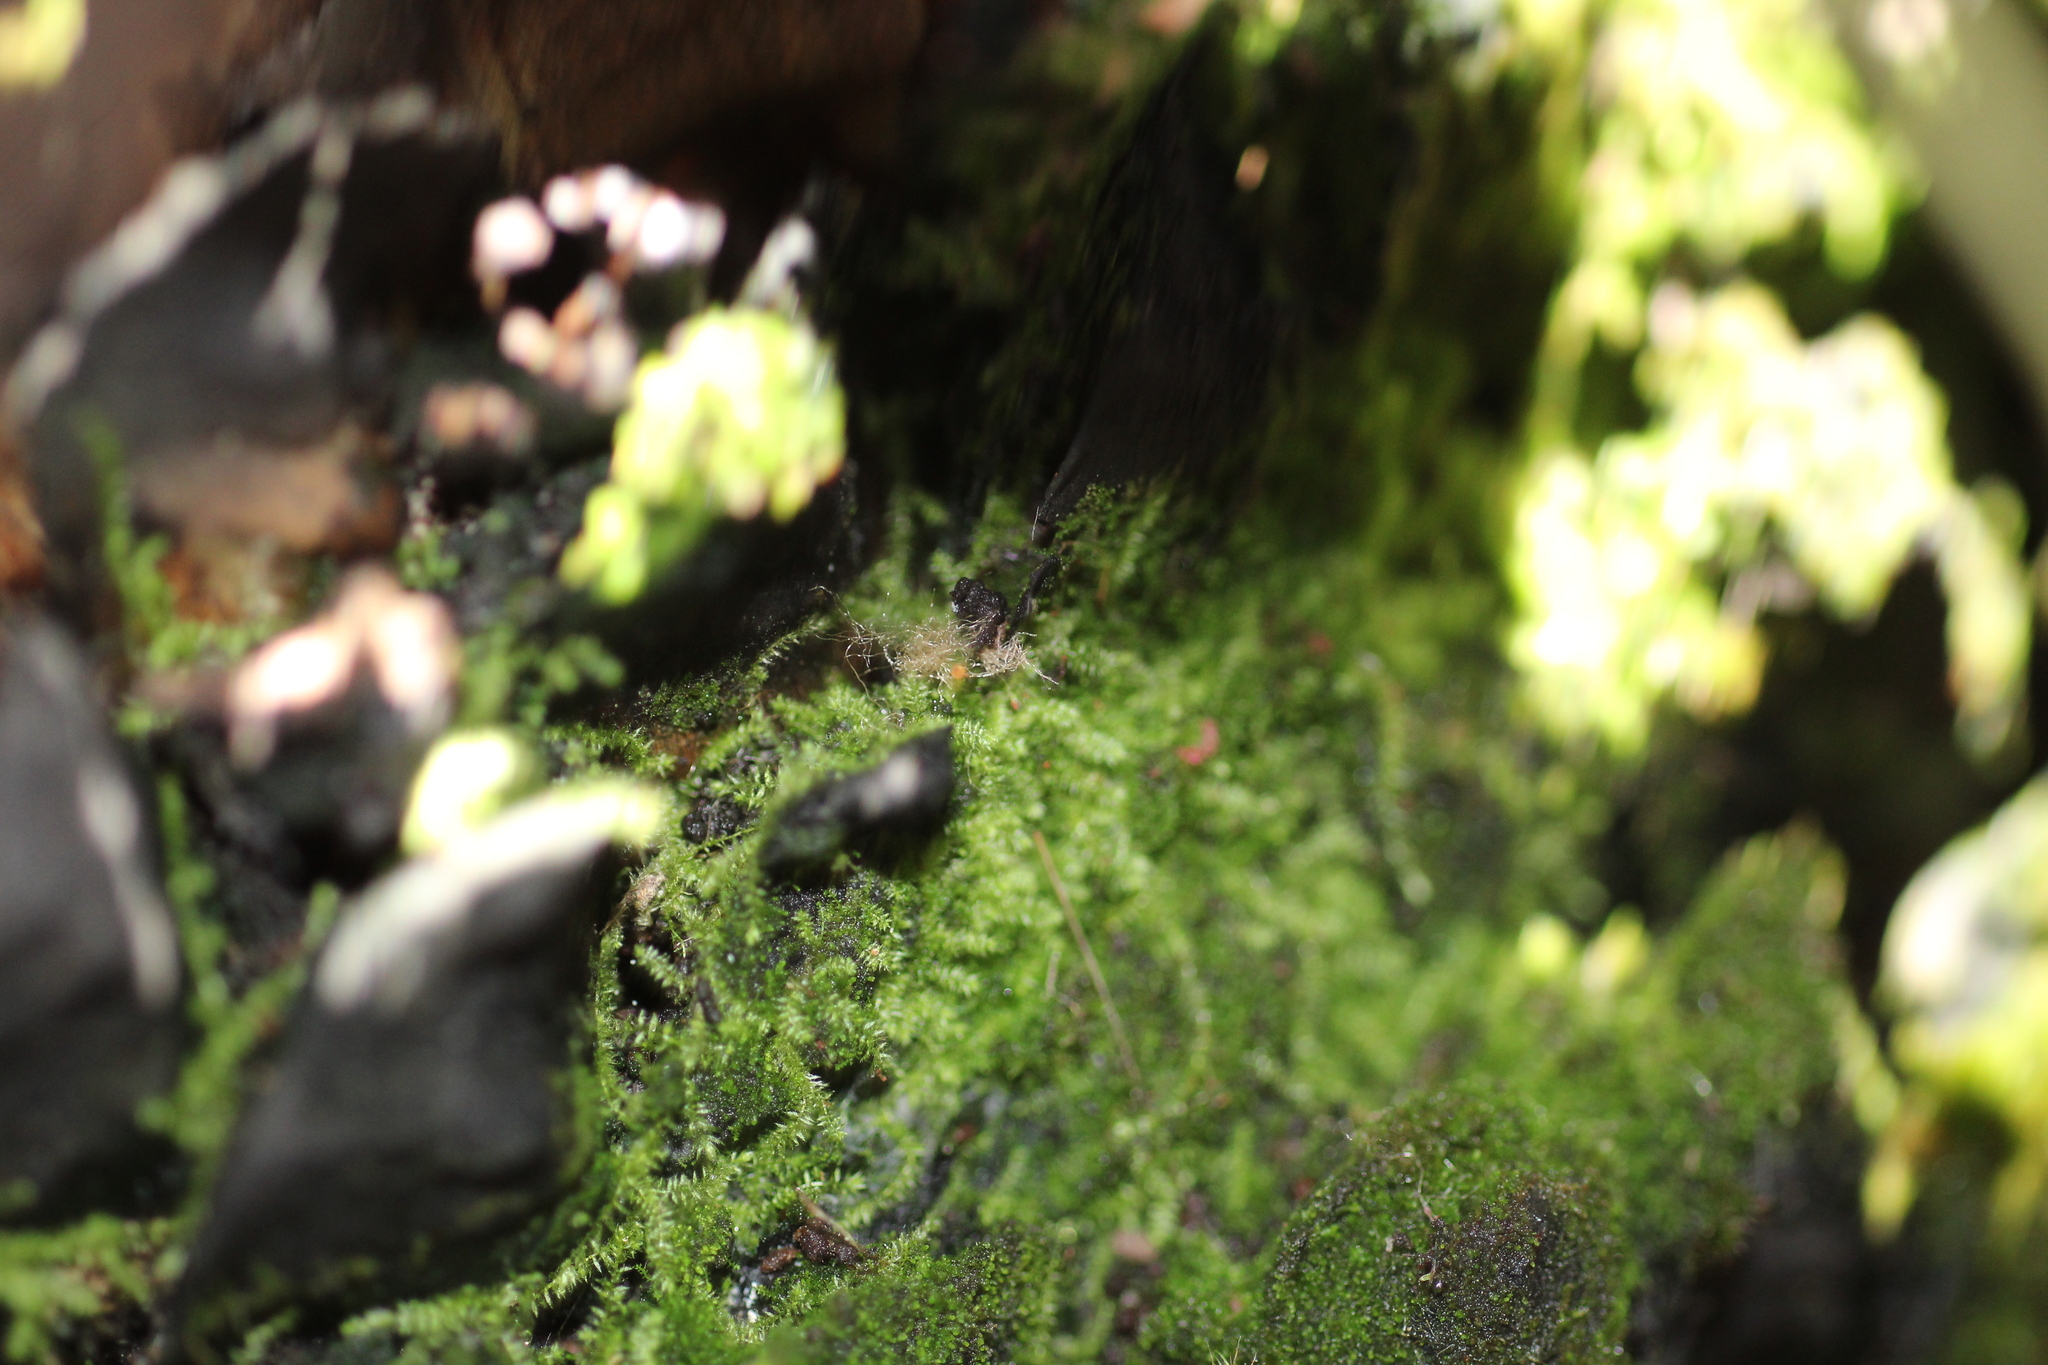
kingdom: Plantae
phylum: Bryophyta
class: Bryopsida
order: Hypnales
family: Fabroniaceae
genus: Fabronia
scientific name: Fabronia hampeana
